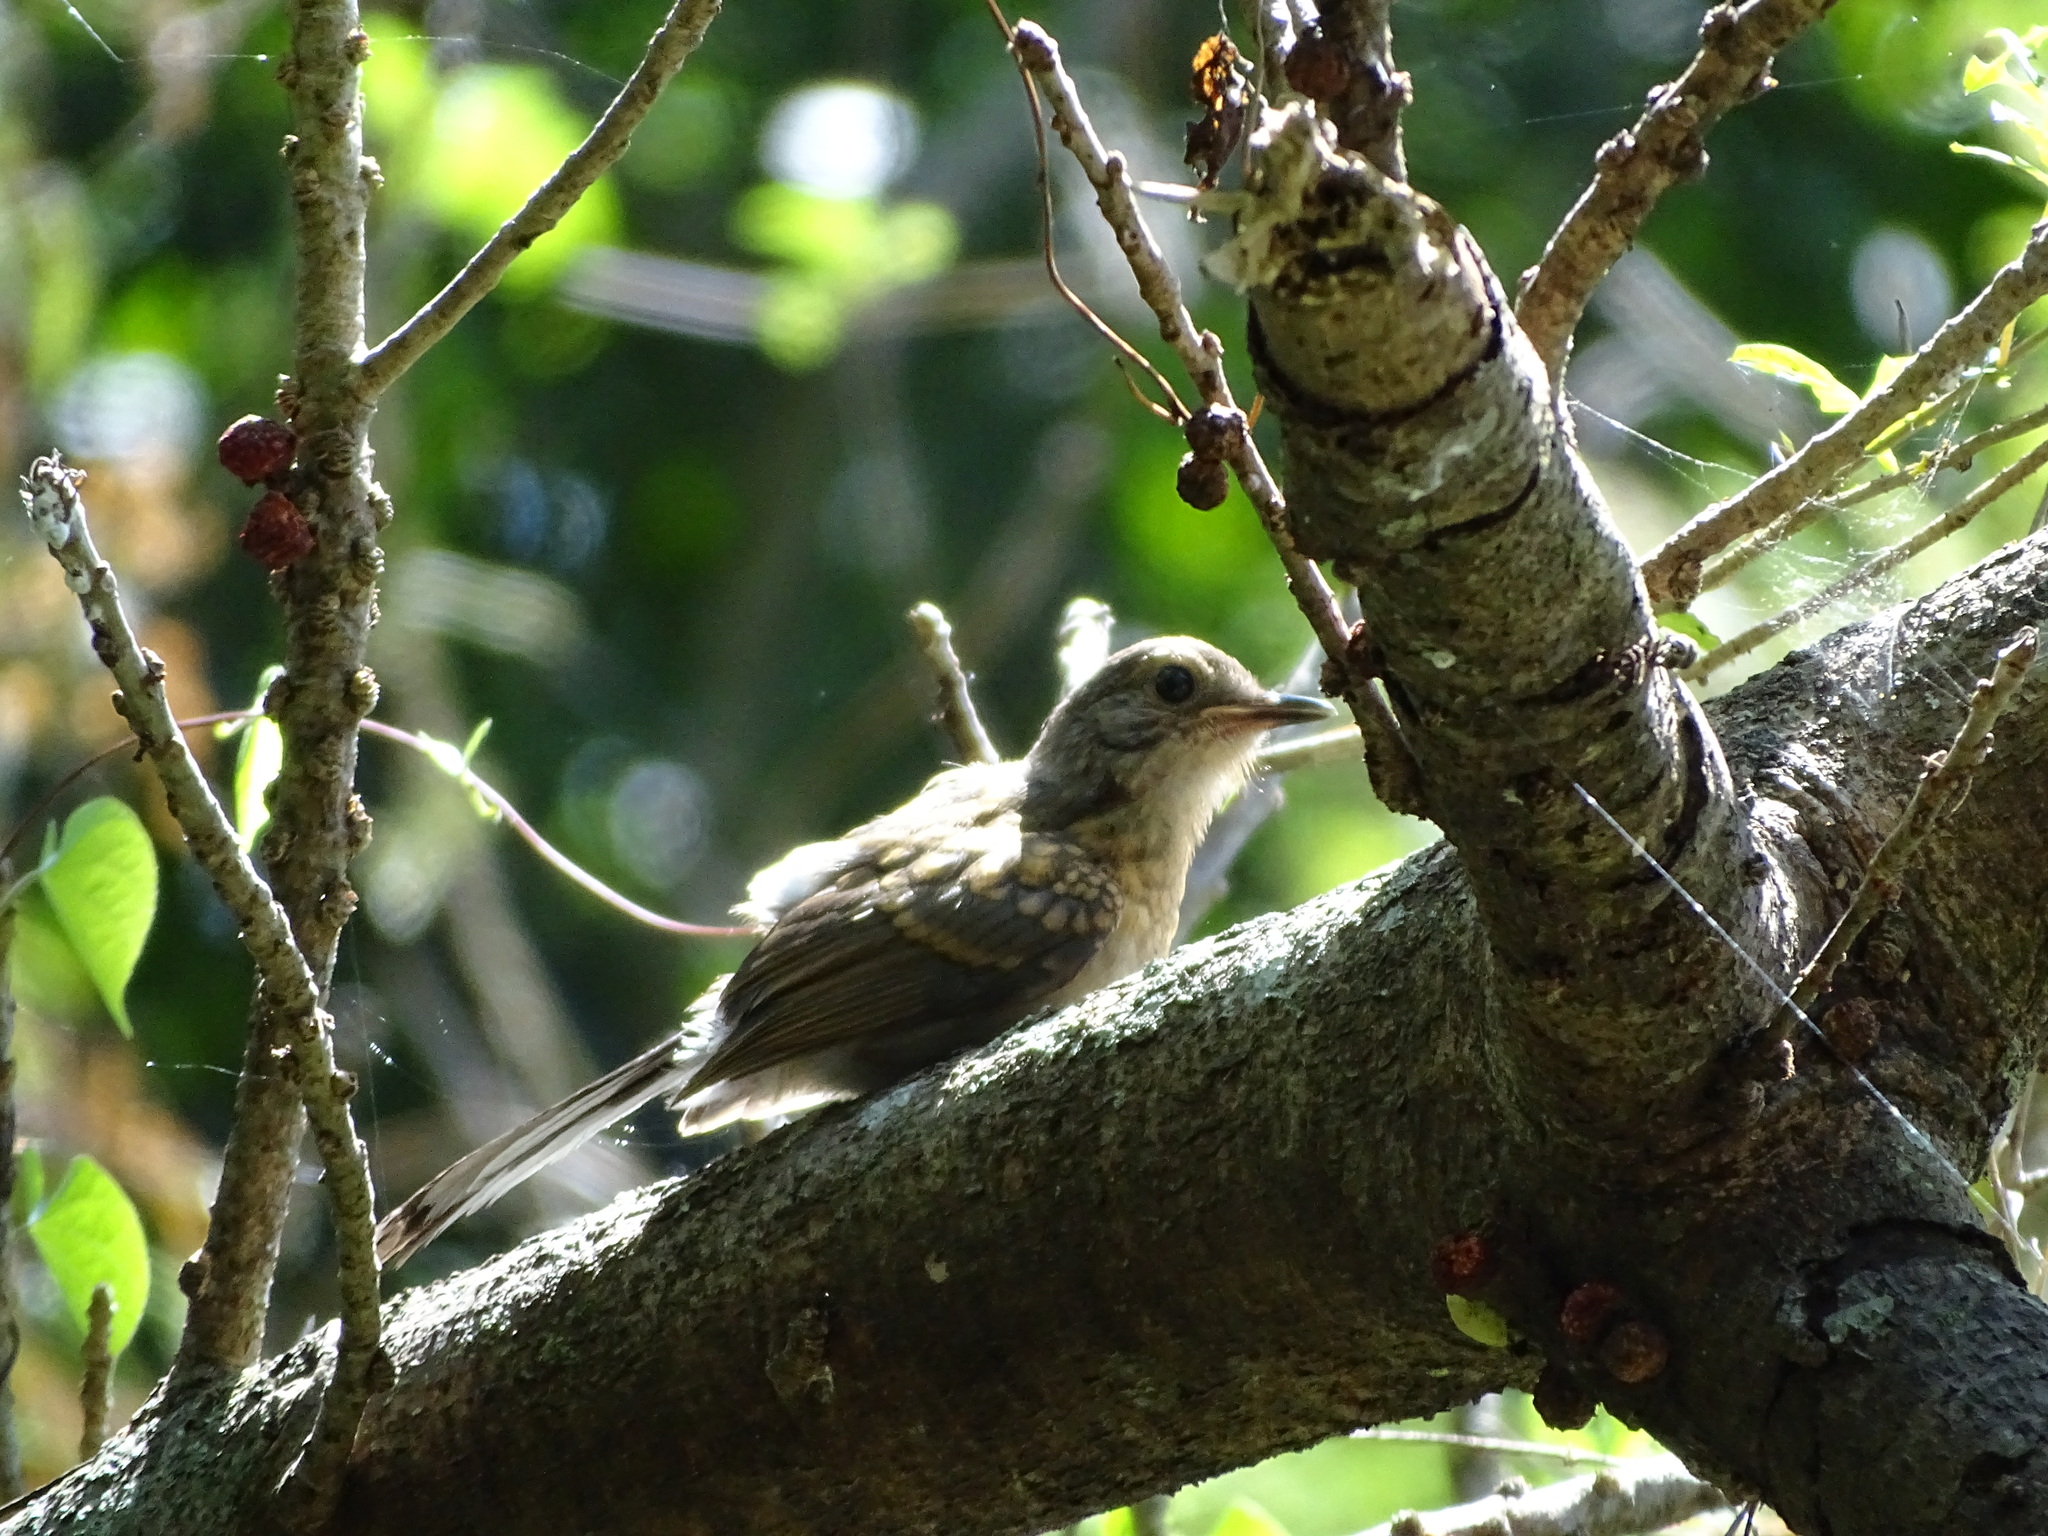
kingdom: Animalia
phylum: Chordata
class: Aves
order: Passeriformes
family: Muscicapidae
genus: Copsychus
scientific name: Copsychus malabaricus
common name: White-rumped shama
